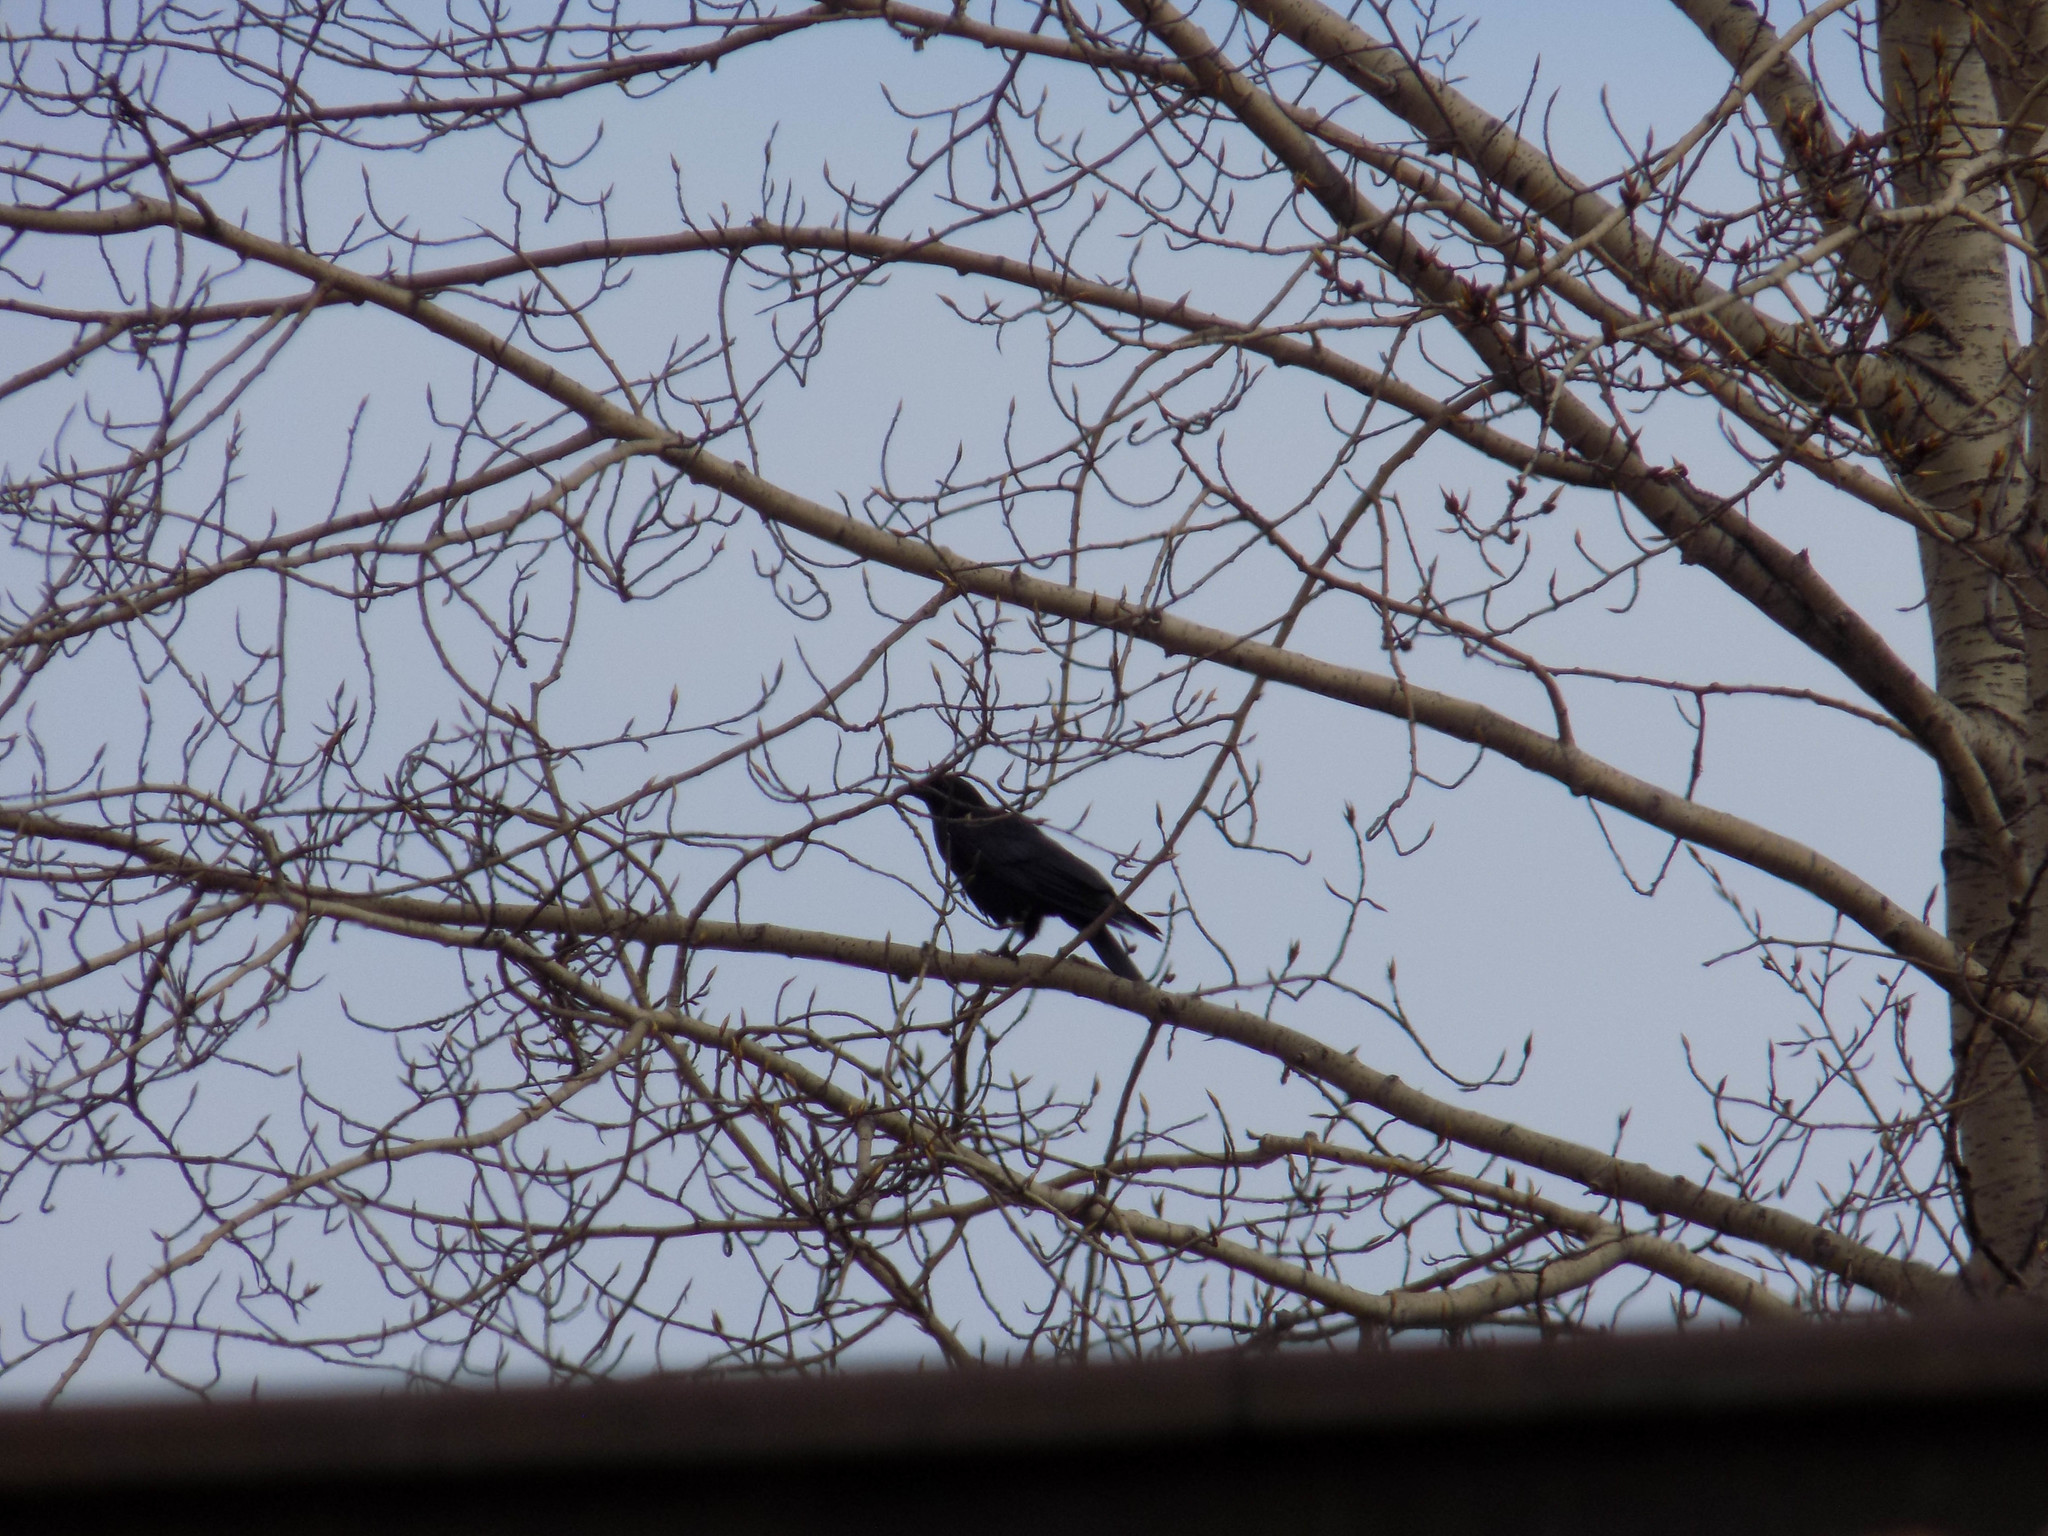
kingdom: Animalia
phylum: Chordata
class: Aves
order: Passeriformes
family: Corvidae
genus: Corvus
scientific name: Corvus corone
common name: Carrion crow
